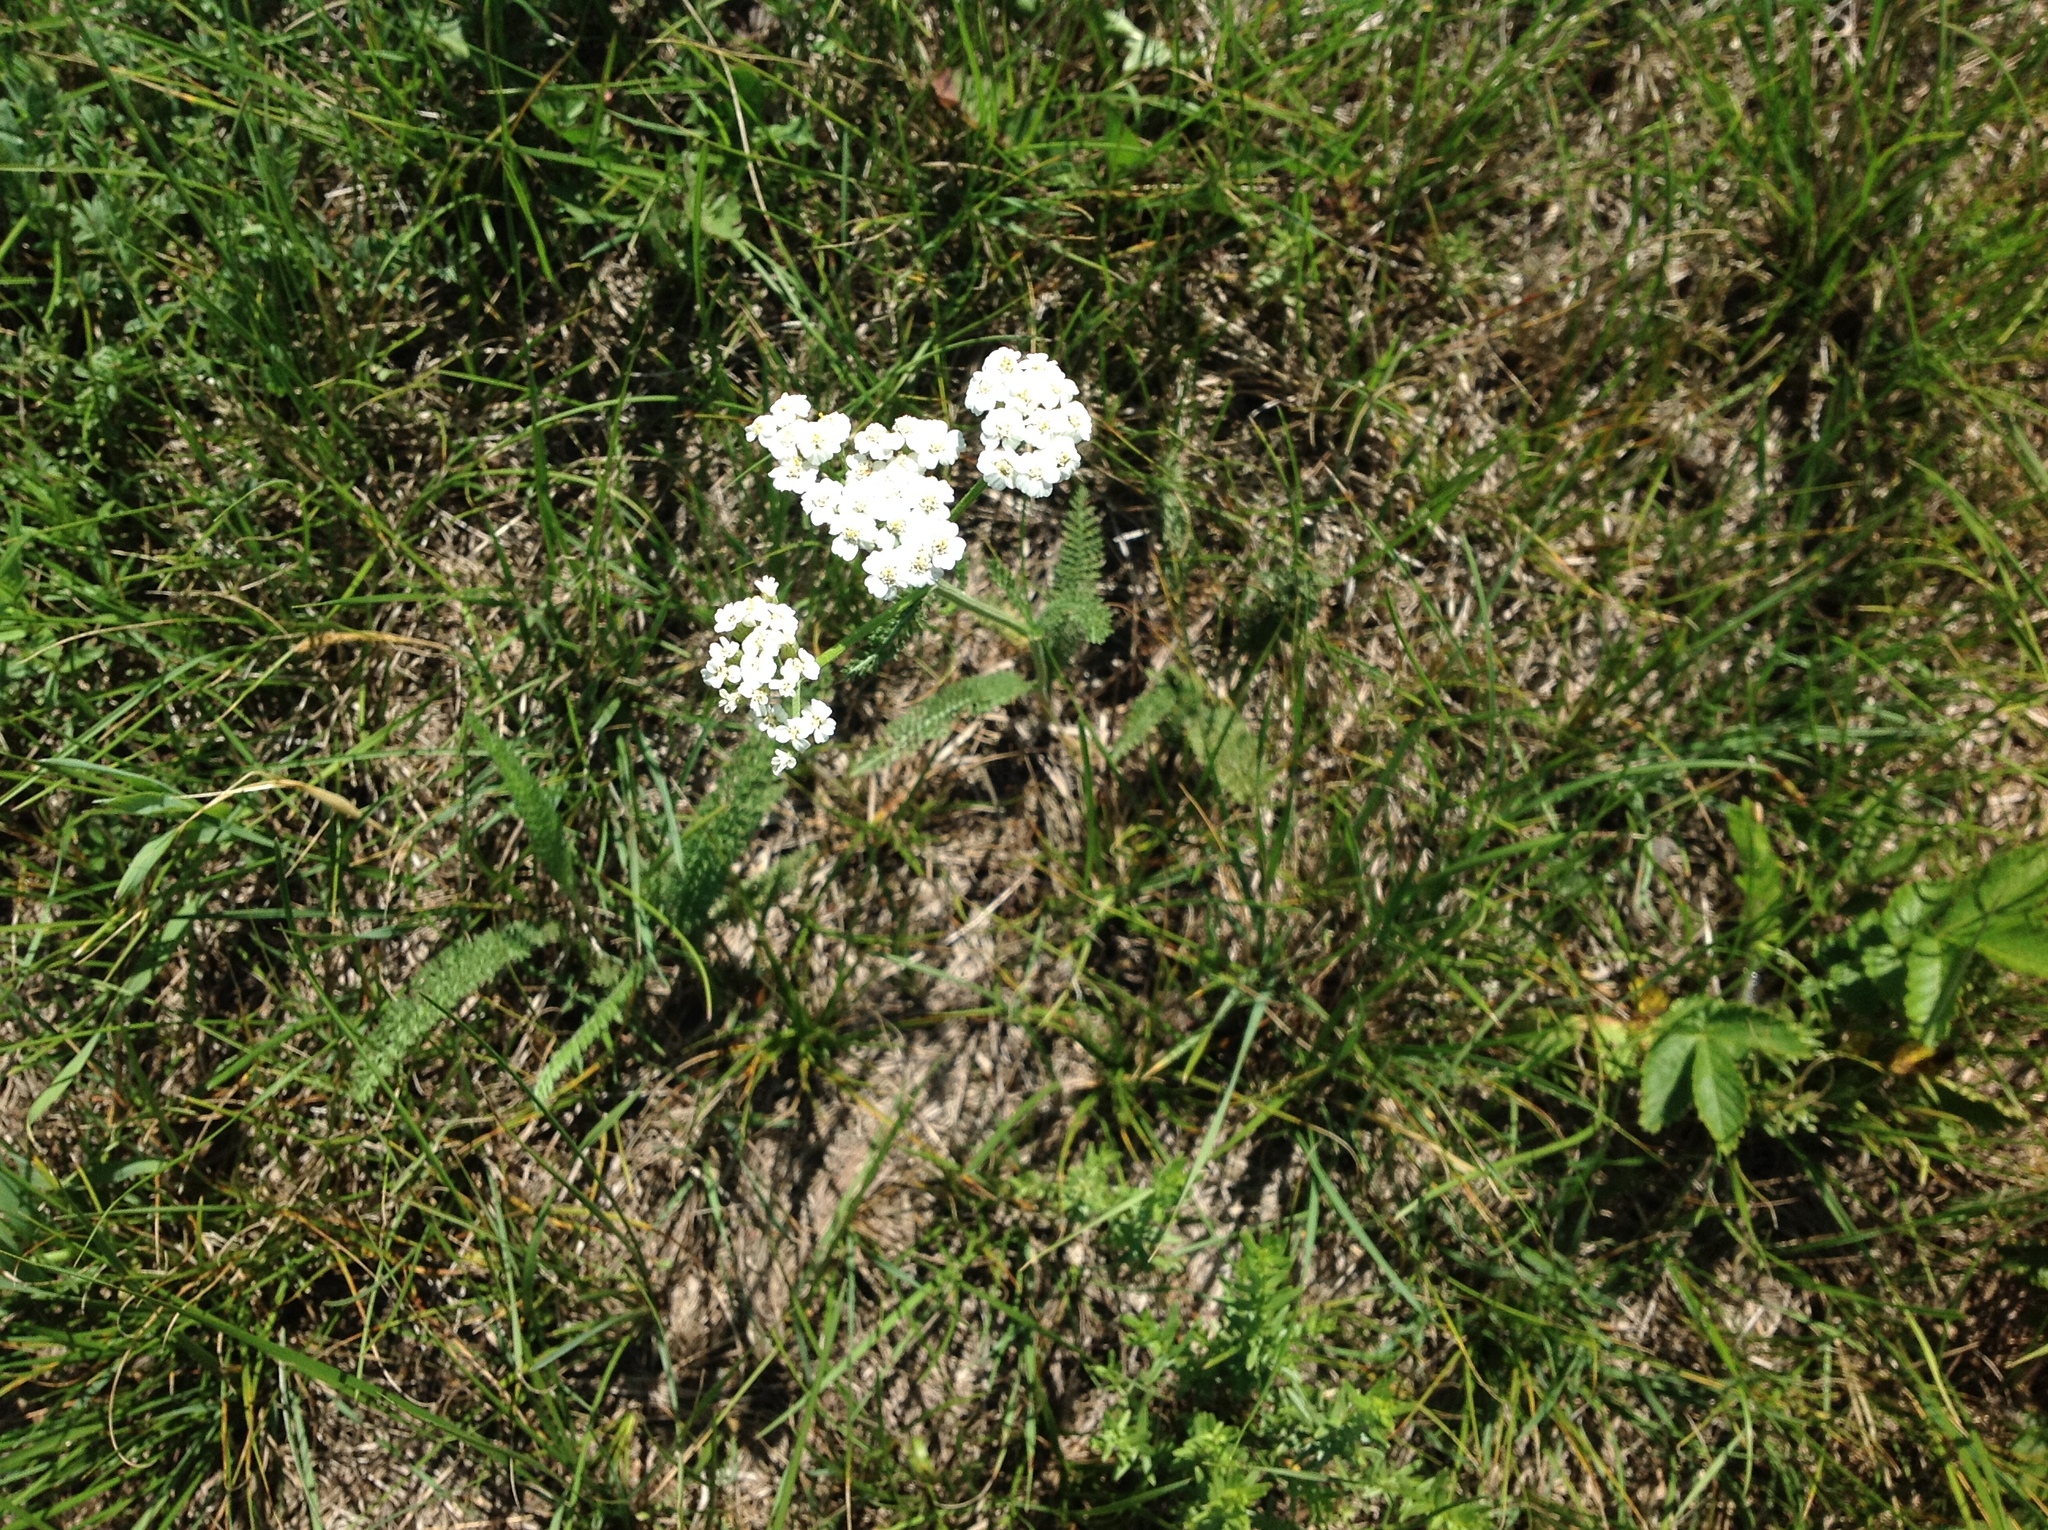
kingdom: Plantae
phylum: Tracheophyta
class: Magnoliopsida
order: Asterales
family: Asteraceae
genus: Achillea
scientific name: Achillea millefolium
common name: Yarrow
